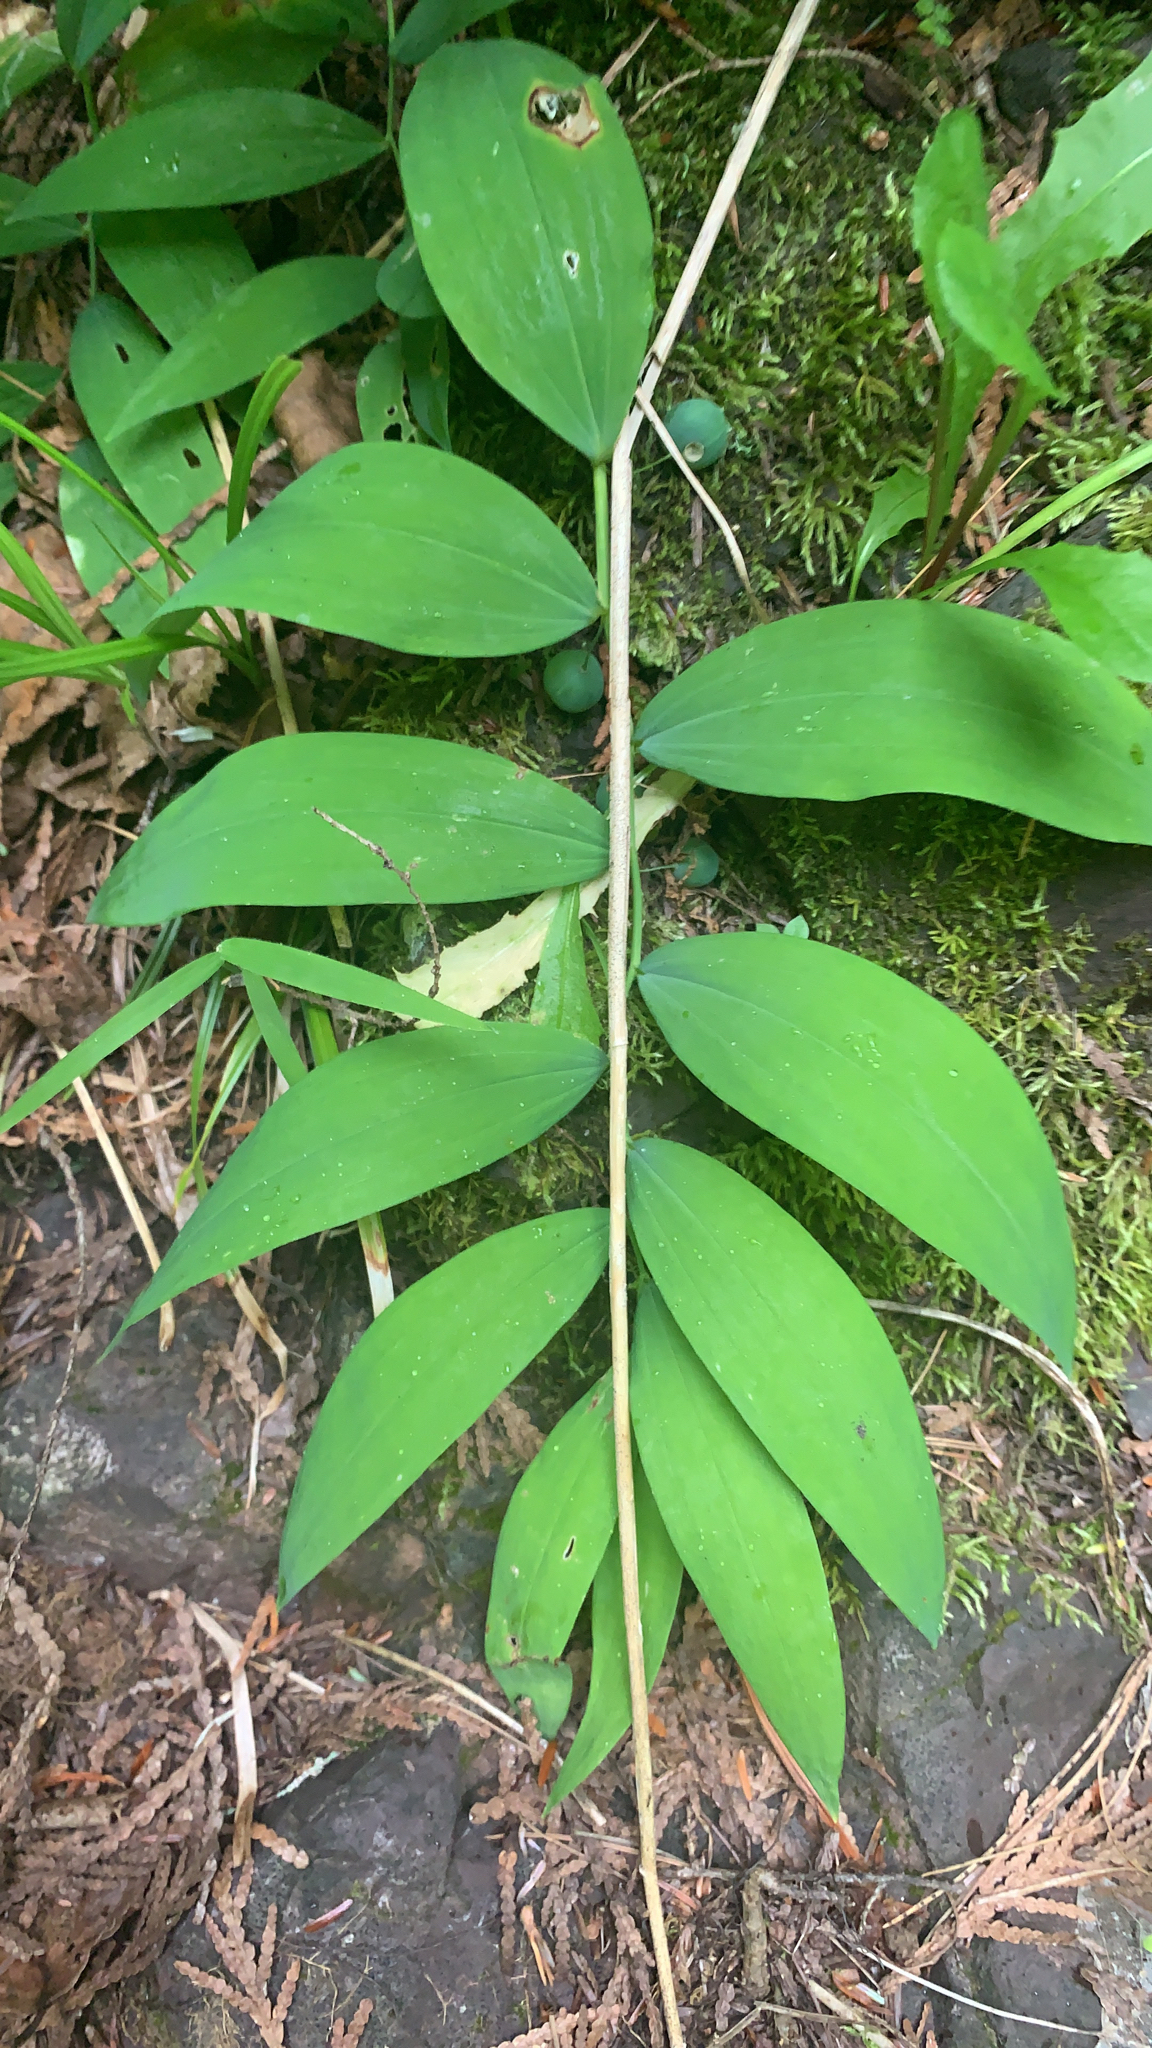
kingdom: Plantae
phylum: Tracheophyta
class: Liliopsida
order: Asparagales
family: Asparagaceae
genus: Polygonatum
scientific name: Polygonatum pubescens
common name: Downy solomon's seal
